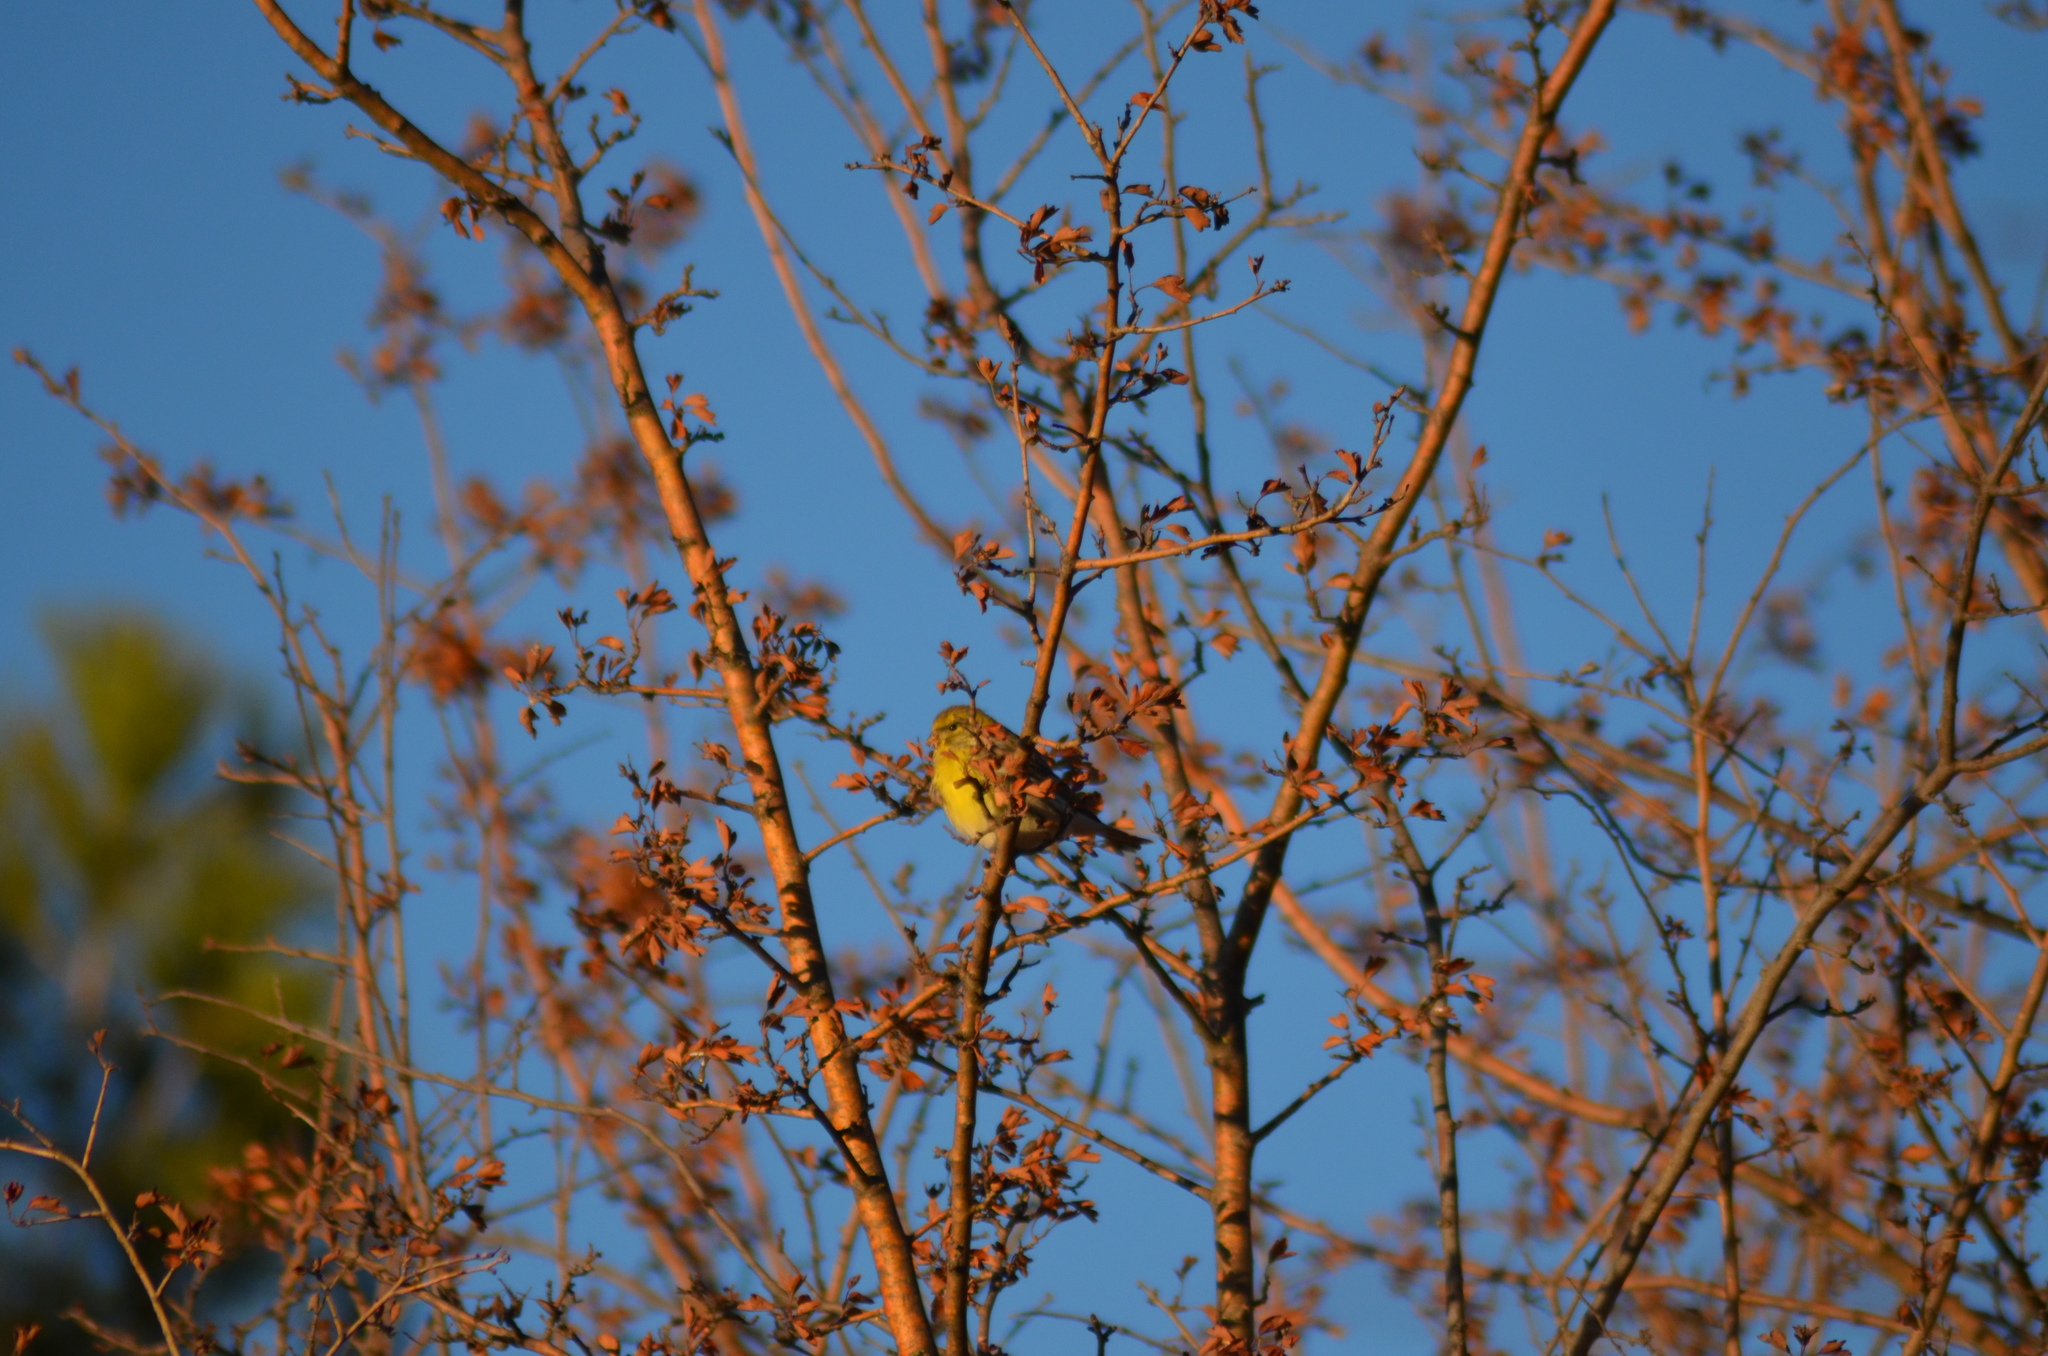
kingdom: Animalia
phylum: Chordata
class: Aves
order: Passeriformes
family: Fringillidae
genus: Serinus
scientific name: Serinus serinus
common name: European serin
